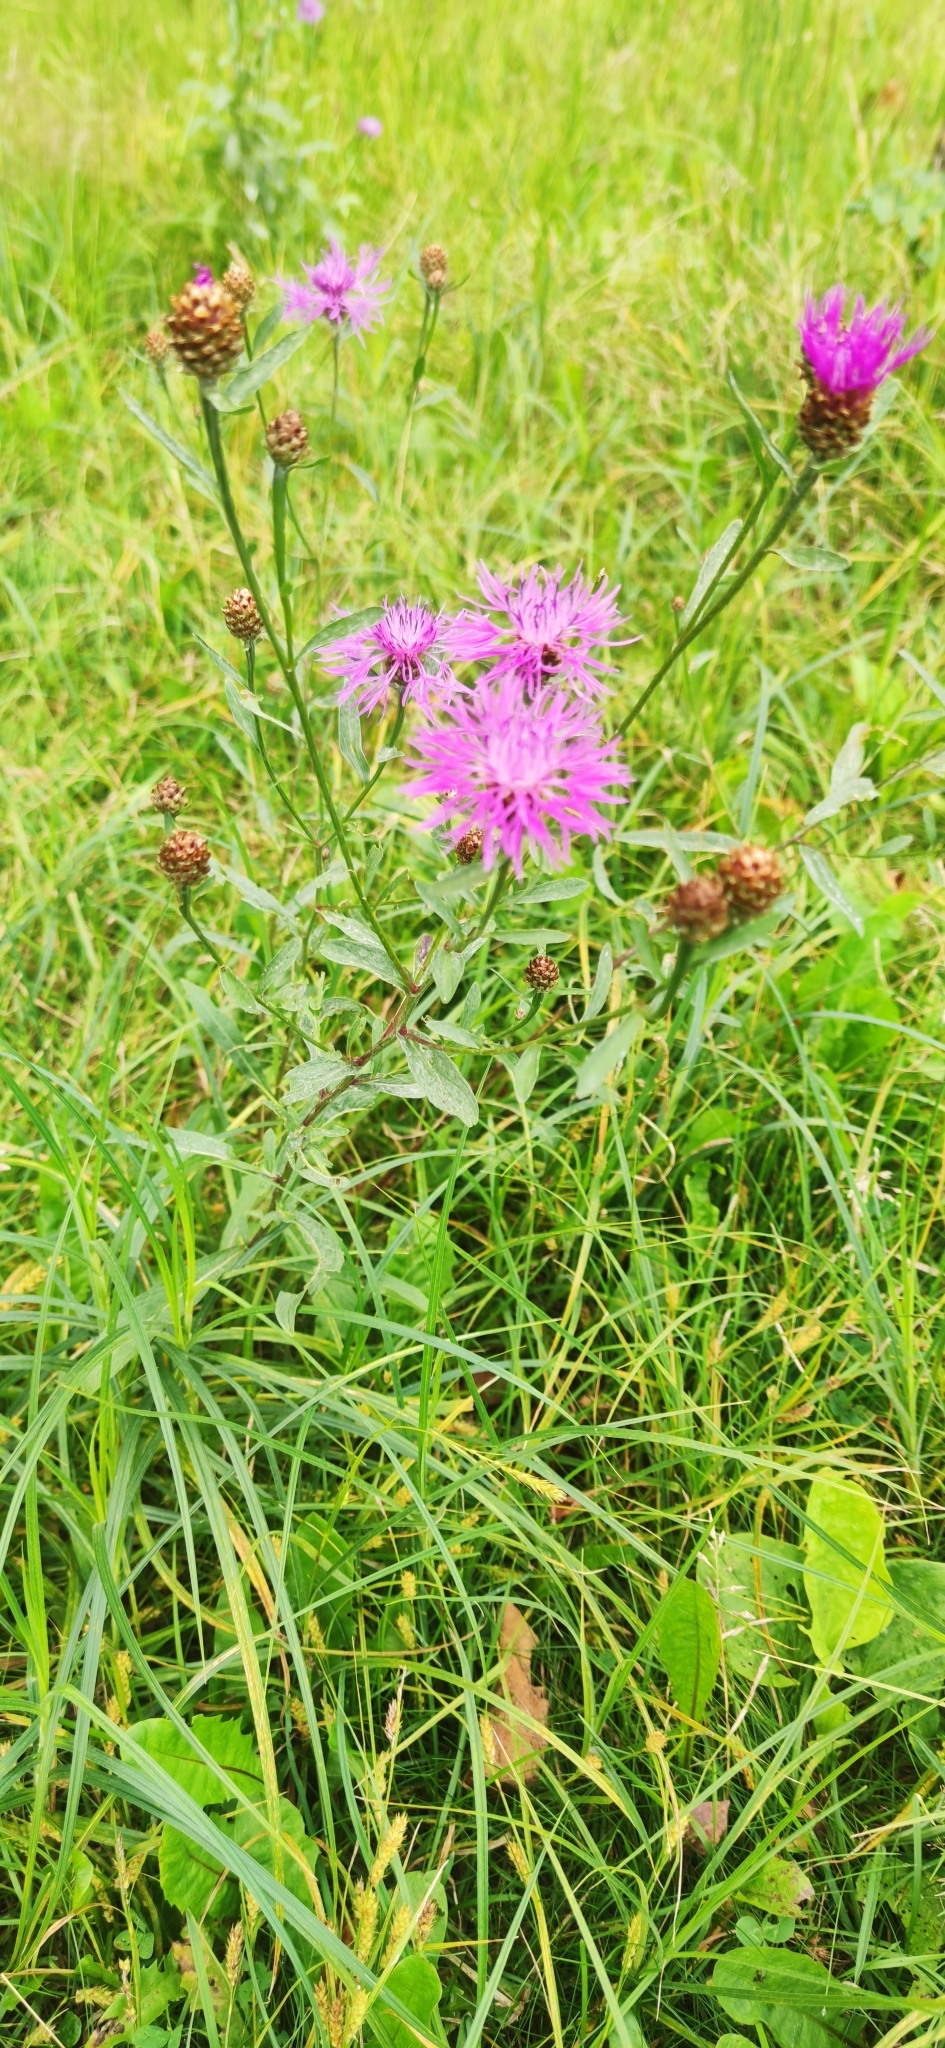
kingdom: Plantae
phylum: Tracheophyta
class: Magnoliopsida
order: Asterales
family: Asteraceae
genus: Centaurea
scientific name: Centaurea jacea
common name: Brown knapweed
